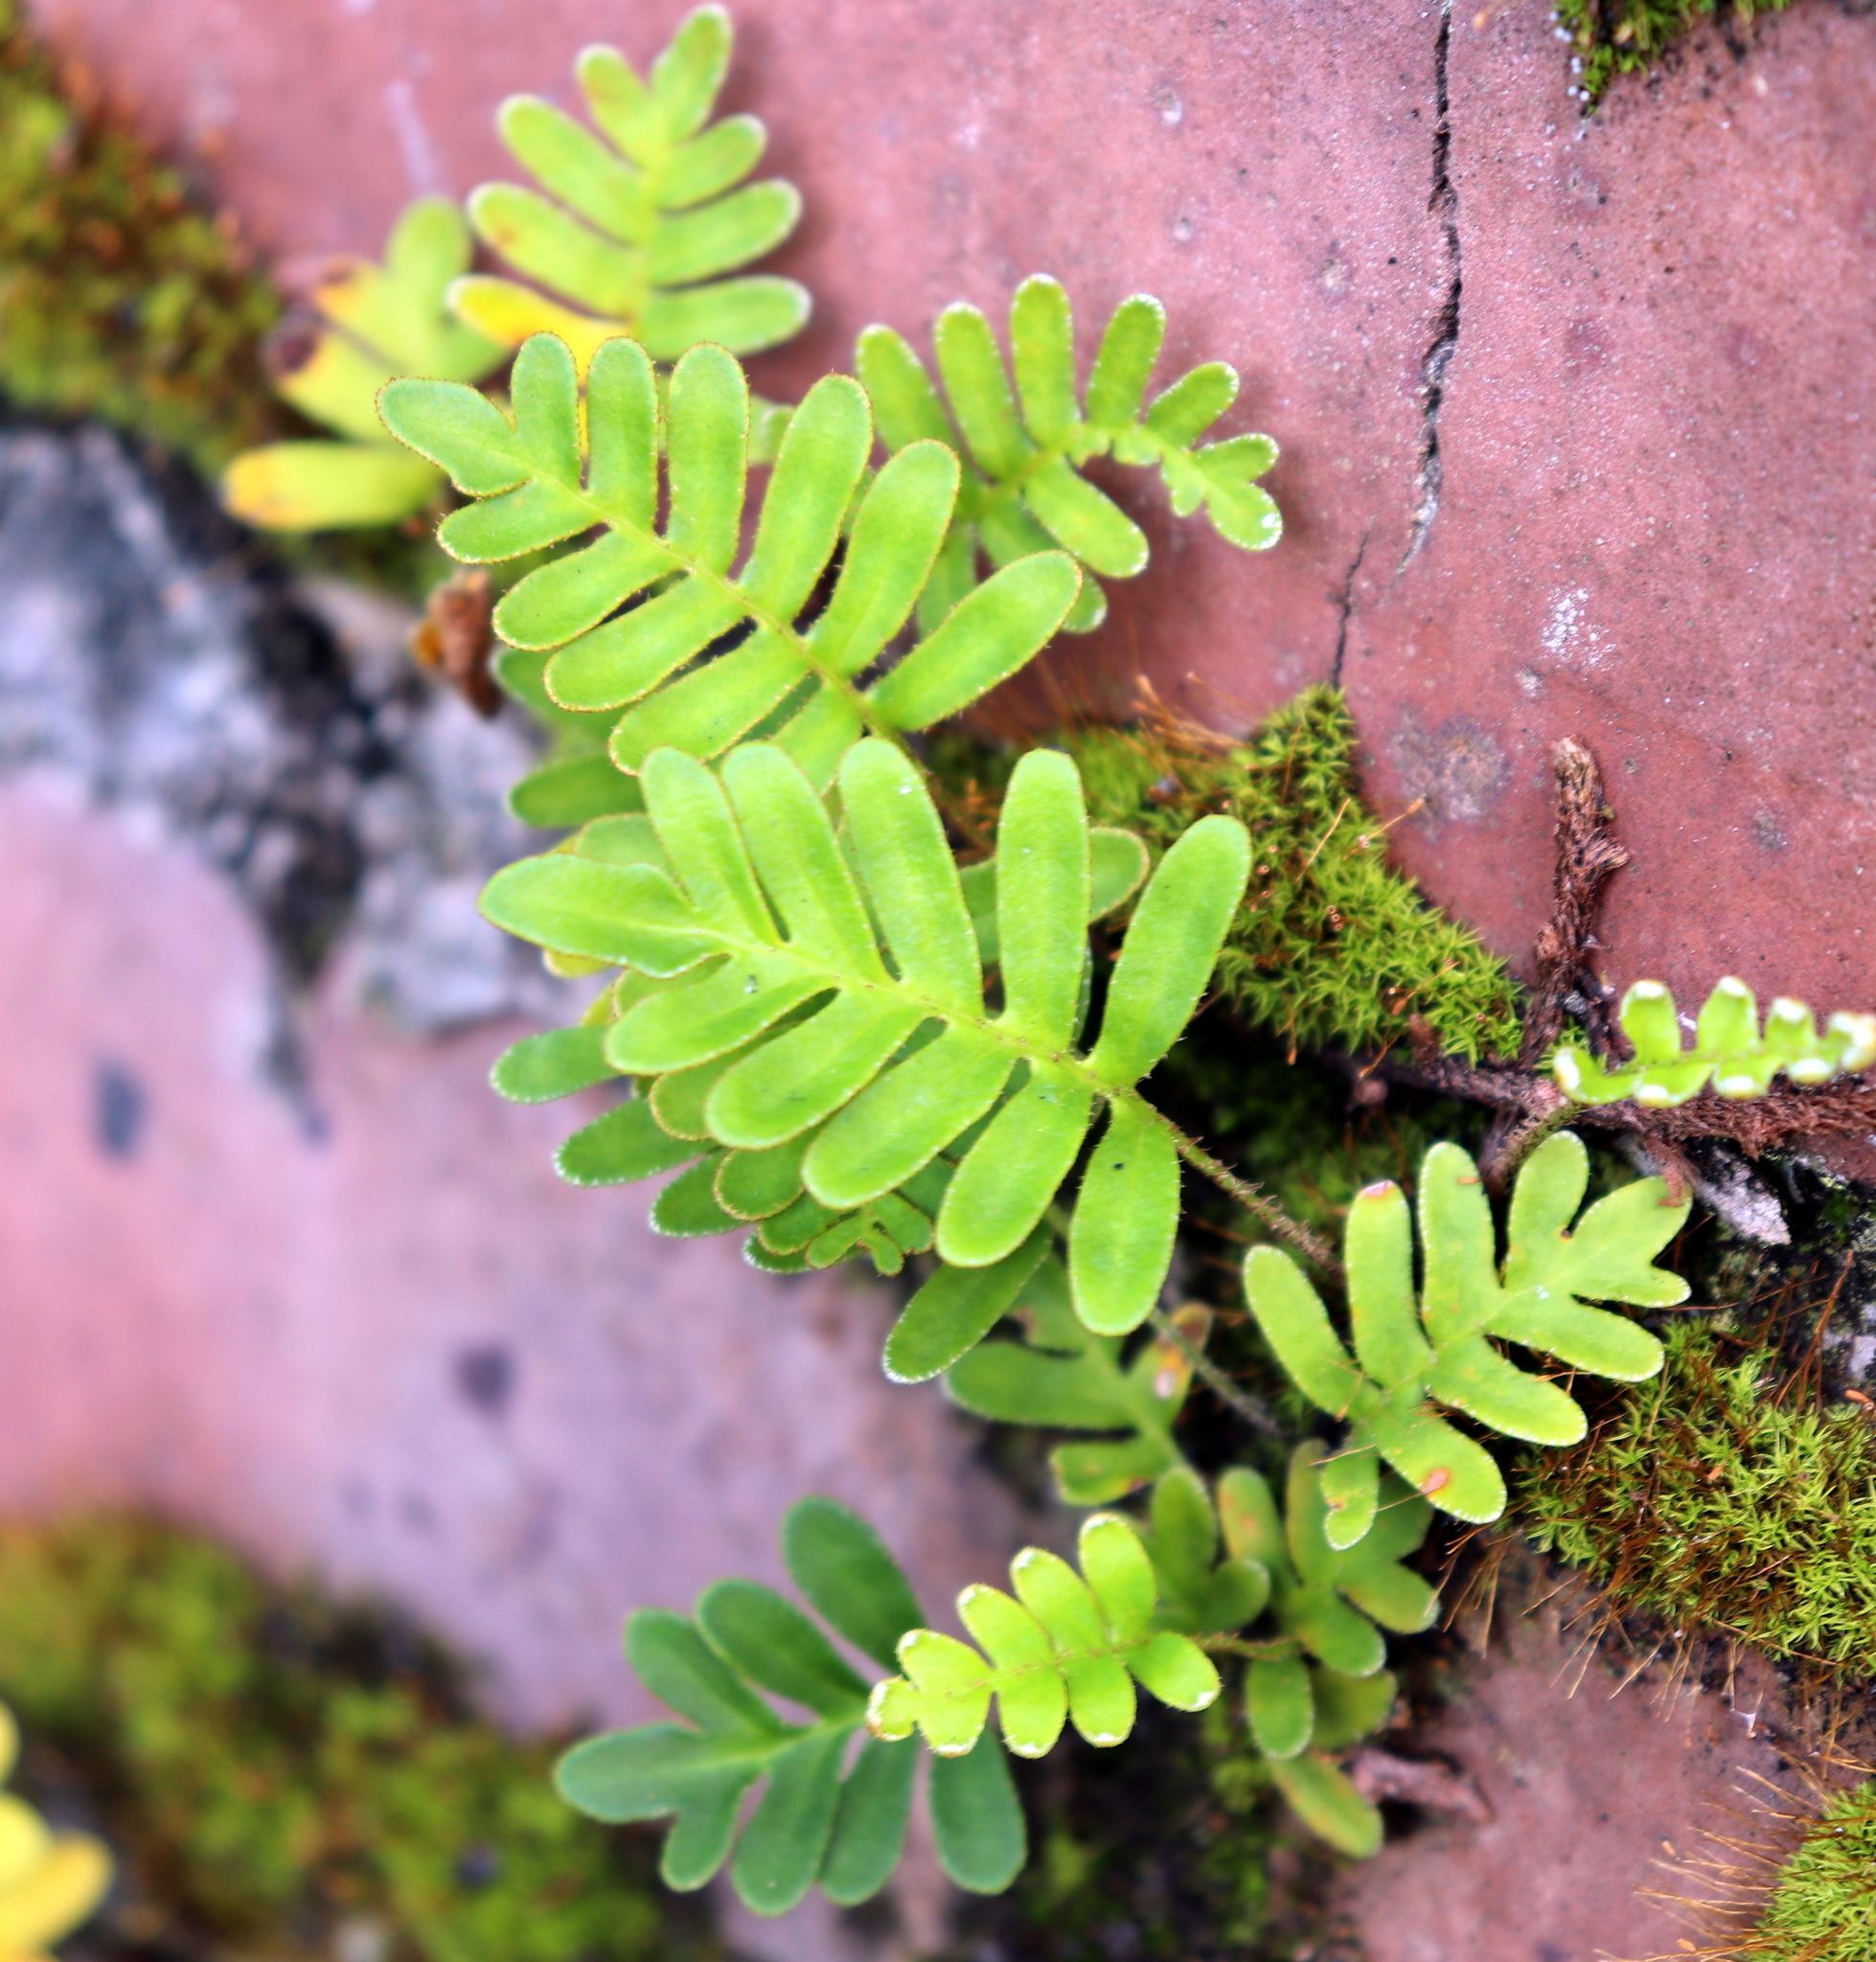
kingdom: Plantae
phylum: Tracheophyta
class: Polypodiopsida
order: Polypodiales
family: Polypodiaceae
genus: Pleopeltis
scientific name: Pleopeltis michauxiana
